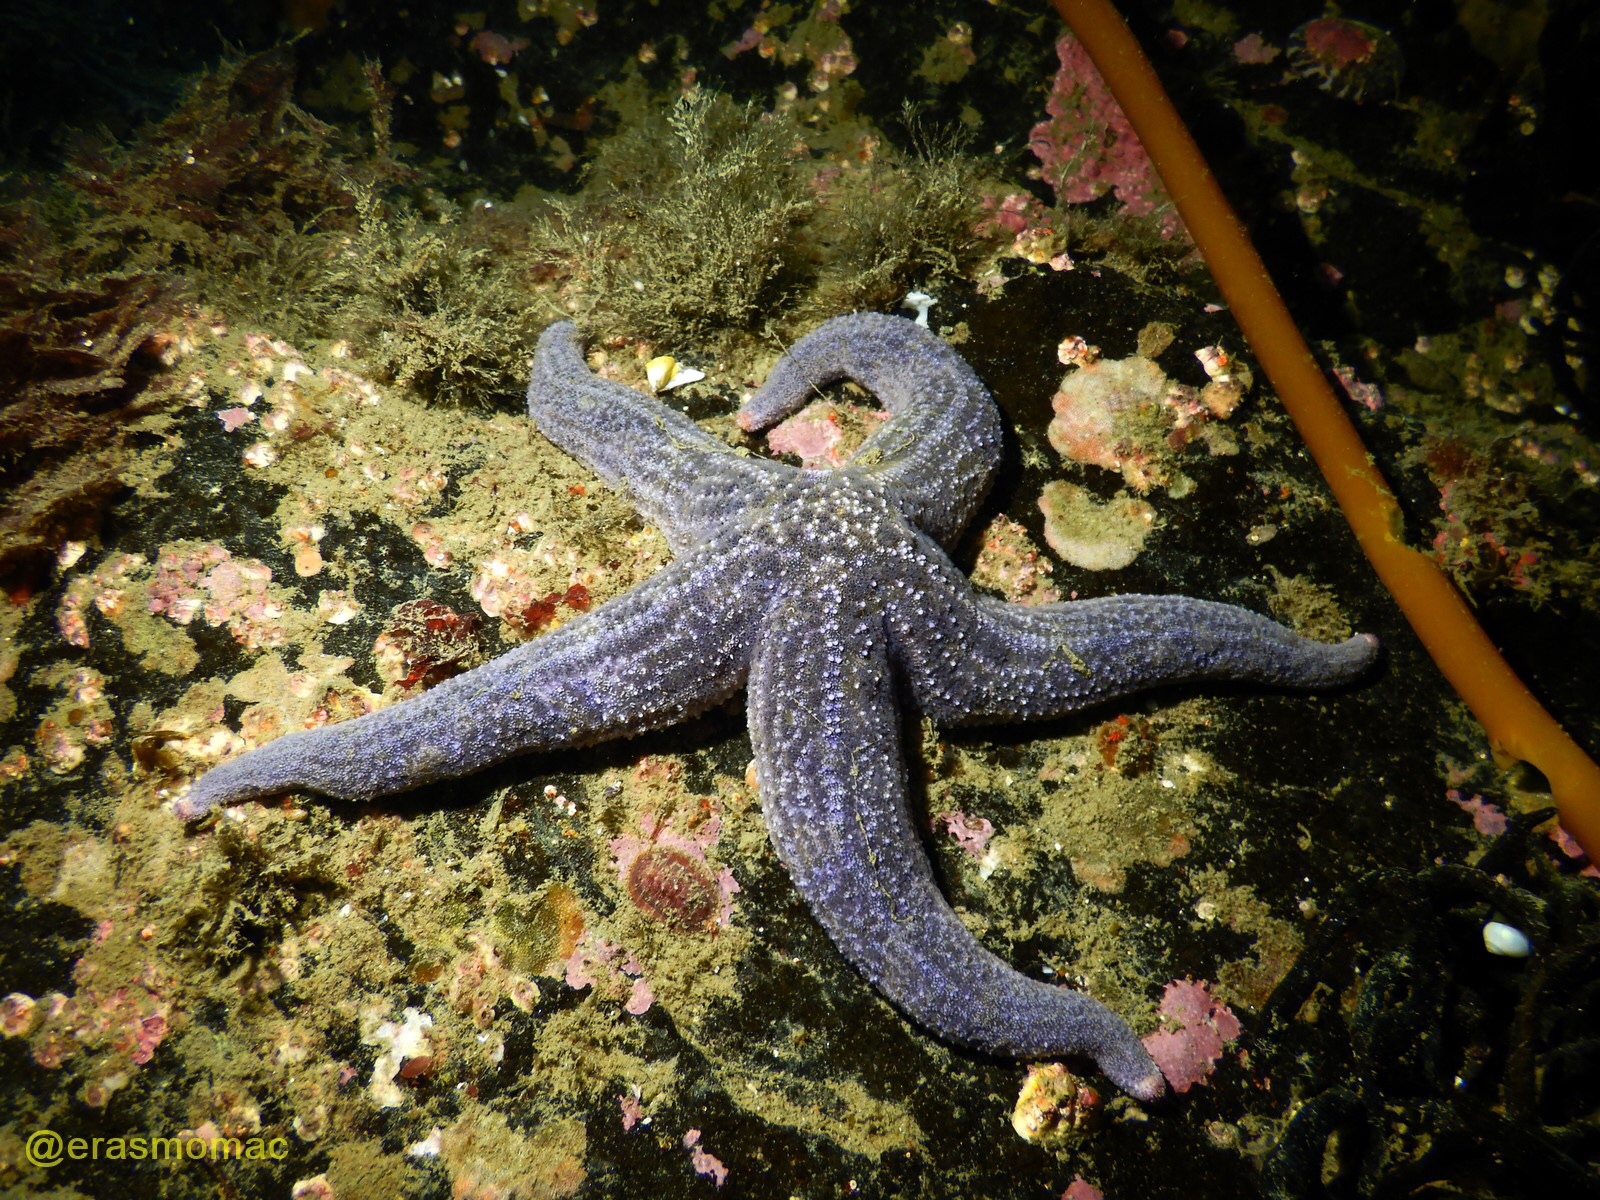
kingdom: Animalia
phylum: Echinodermata
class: Asteroidea
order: Forcipulatida
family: Stichasteridae
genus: Cosmasterias
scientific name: Cosmasterias lurida
